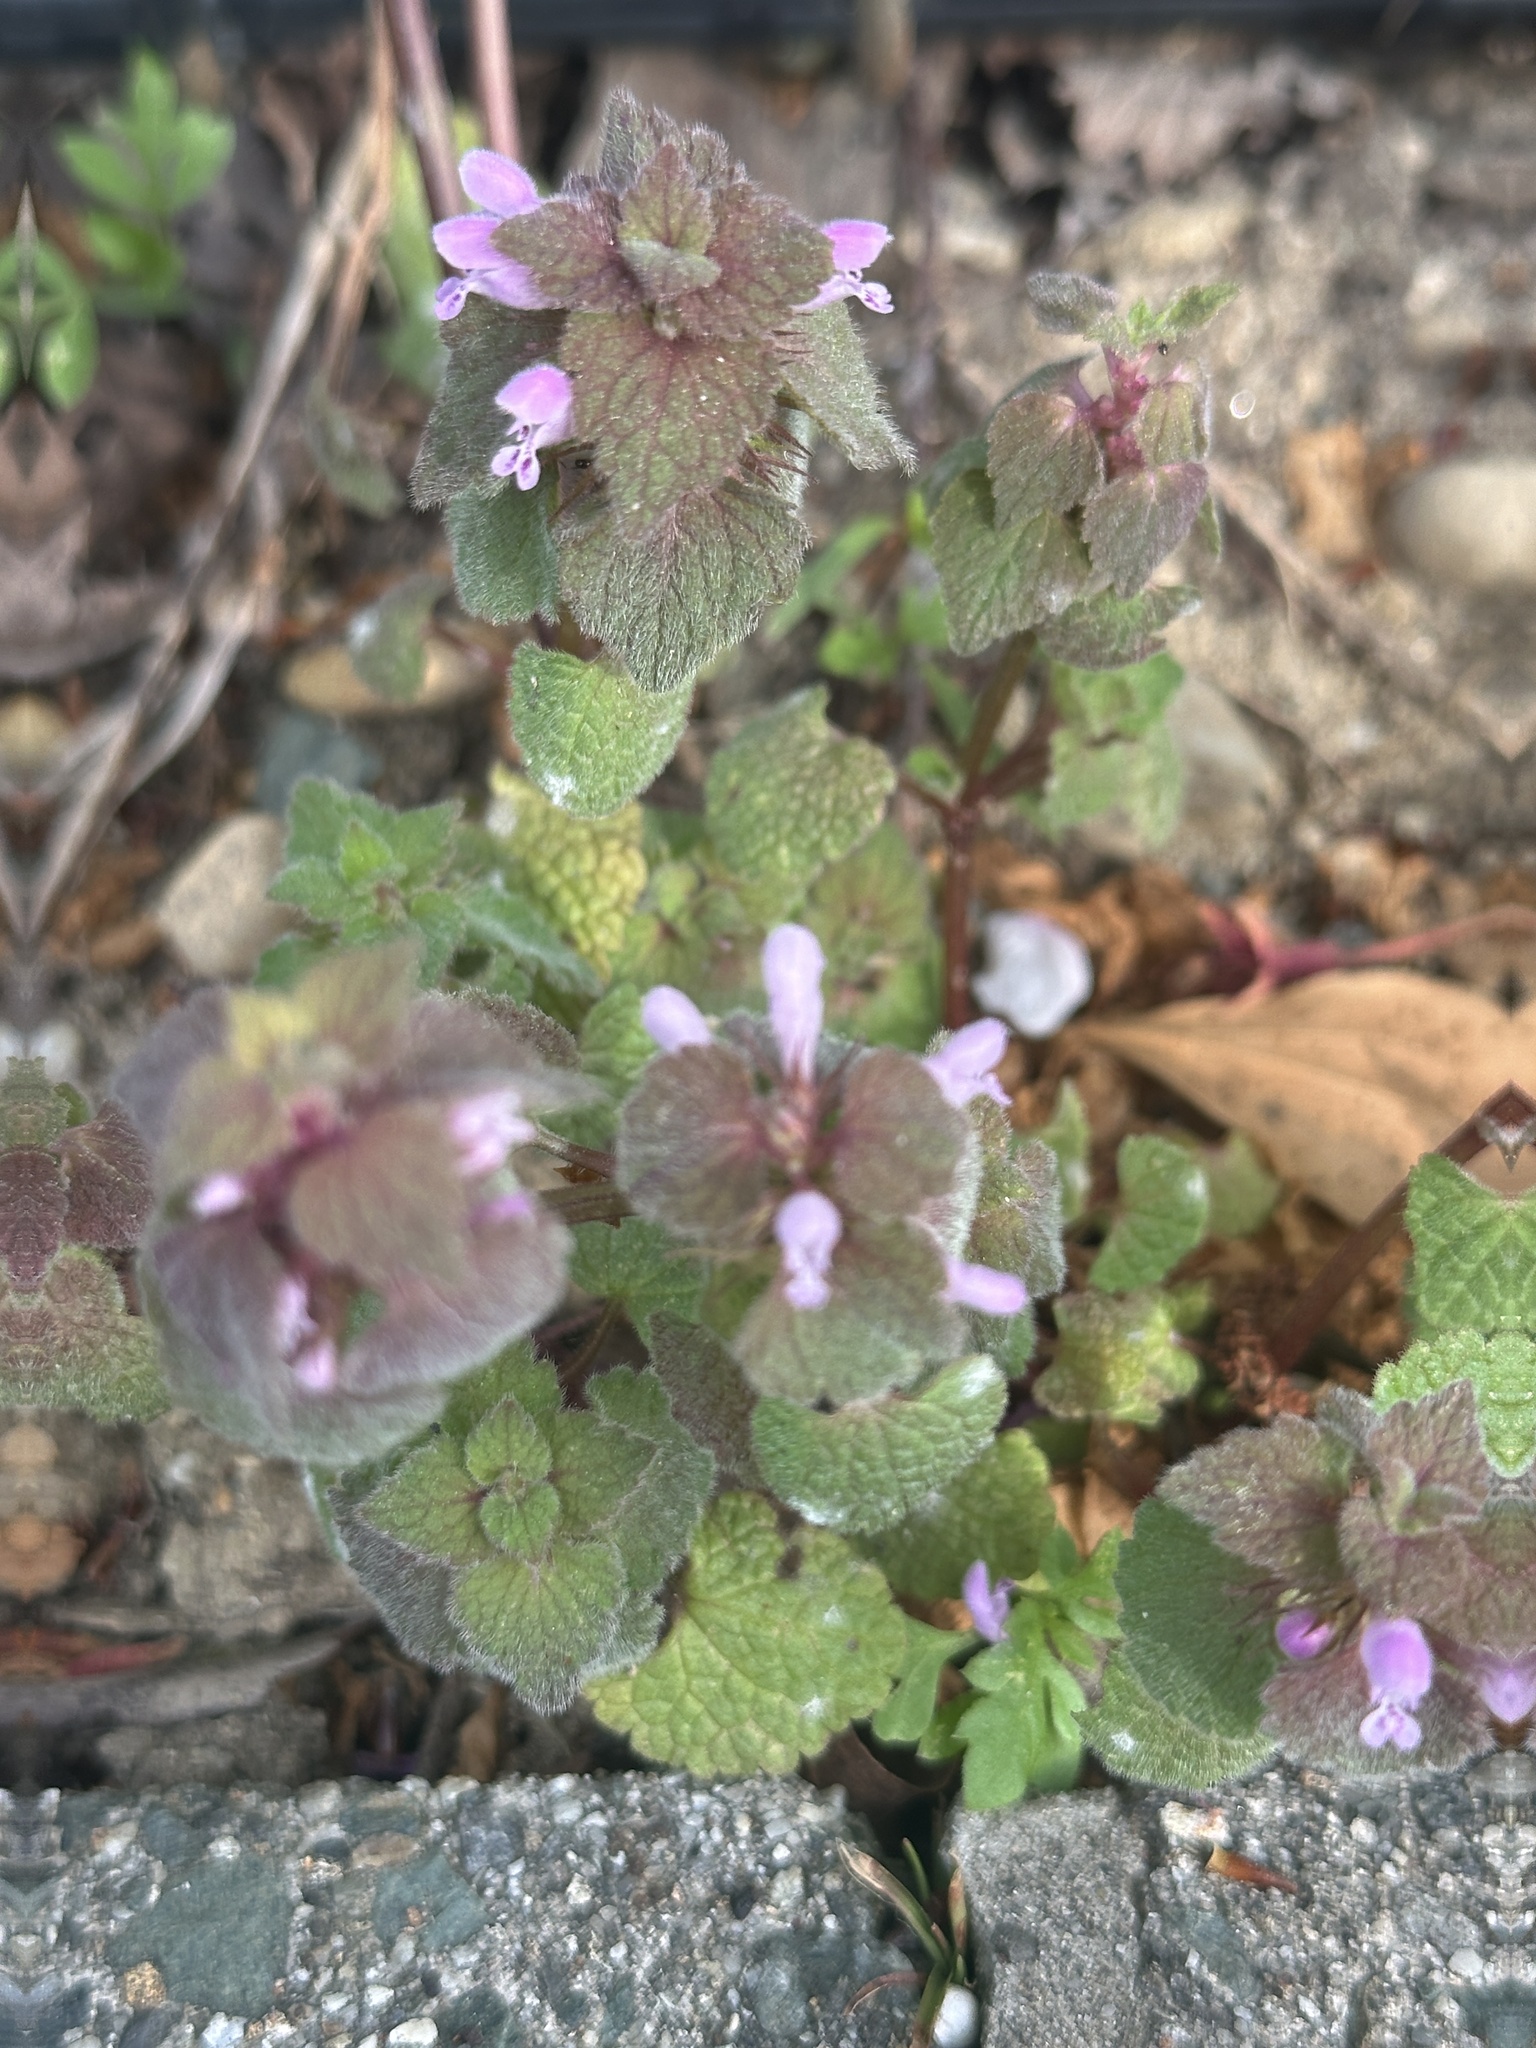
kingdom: Plantae
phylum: Tracheophyta
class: Magnoliopsida
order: Lamiales
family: Lamiaceae
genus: Lamium
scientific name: Lamium purpureum
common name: Red dead-nettle
